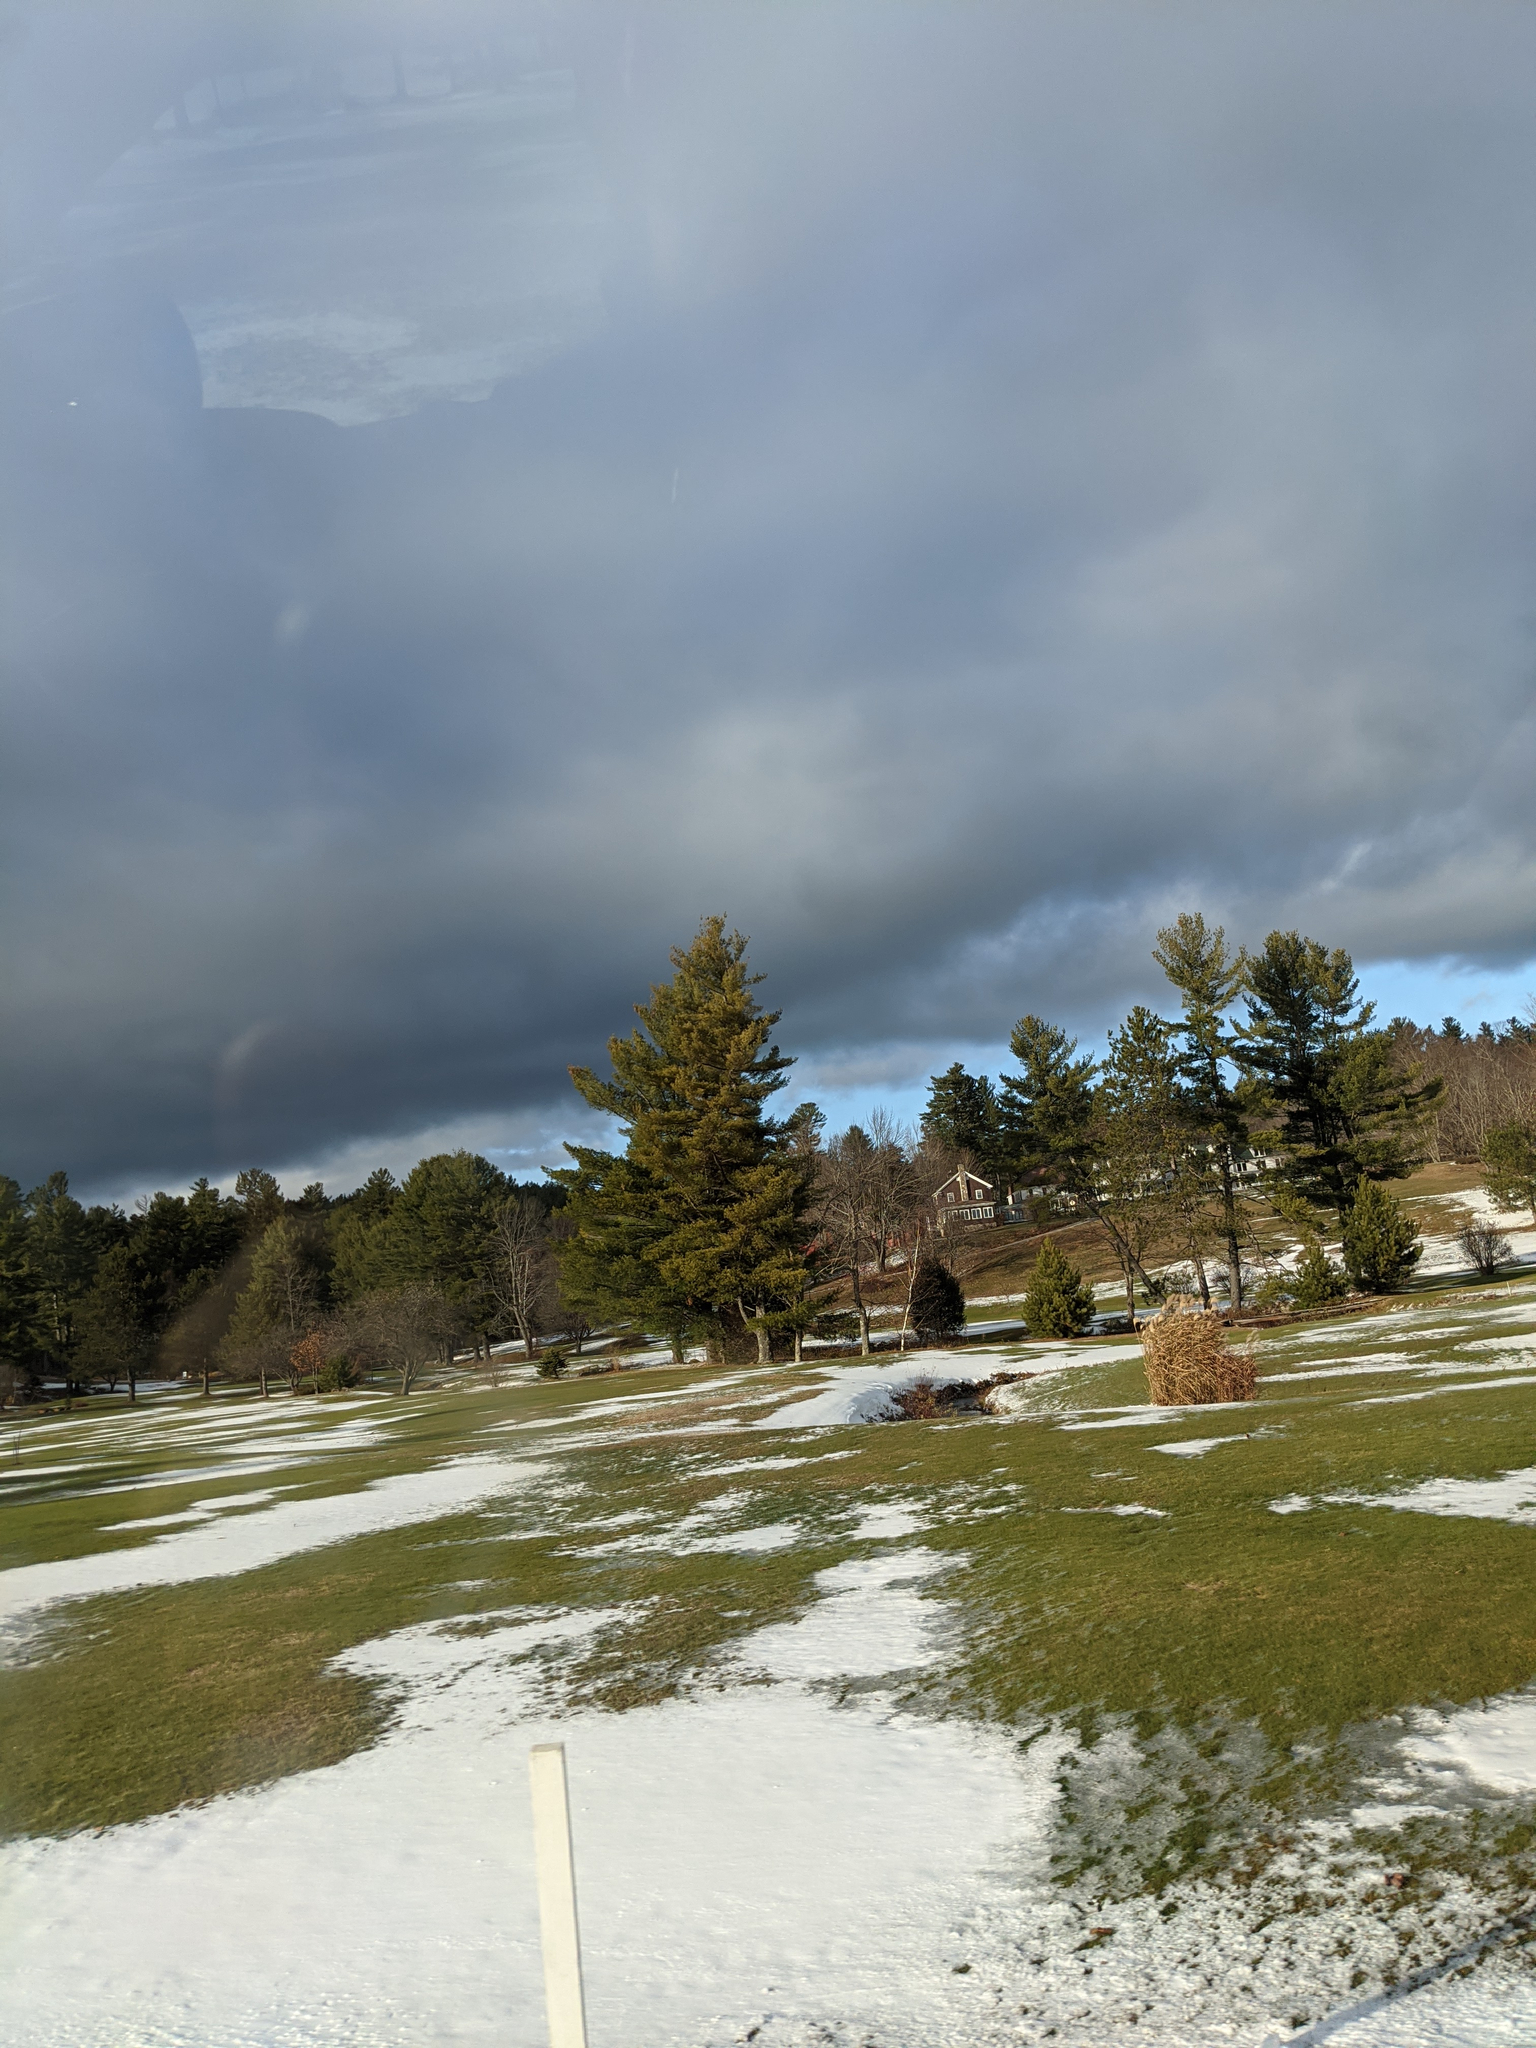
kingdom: Plantae
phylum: Tracheophyta
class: Pinopsida
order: Pinales
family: Pinaceae
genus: Pinus
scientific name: Pinus strobus
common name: Weymouth pine
